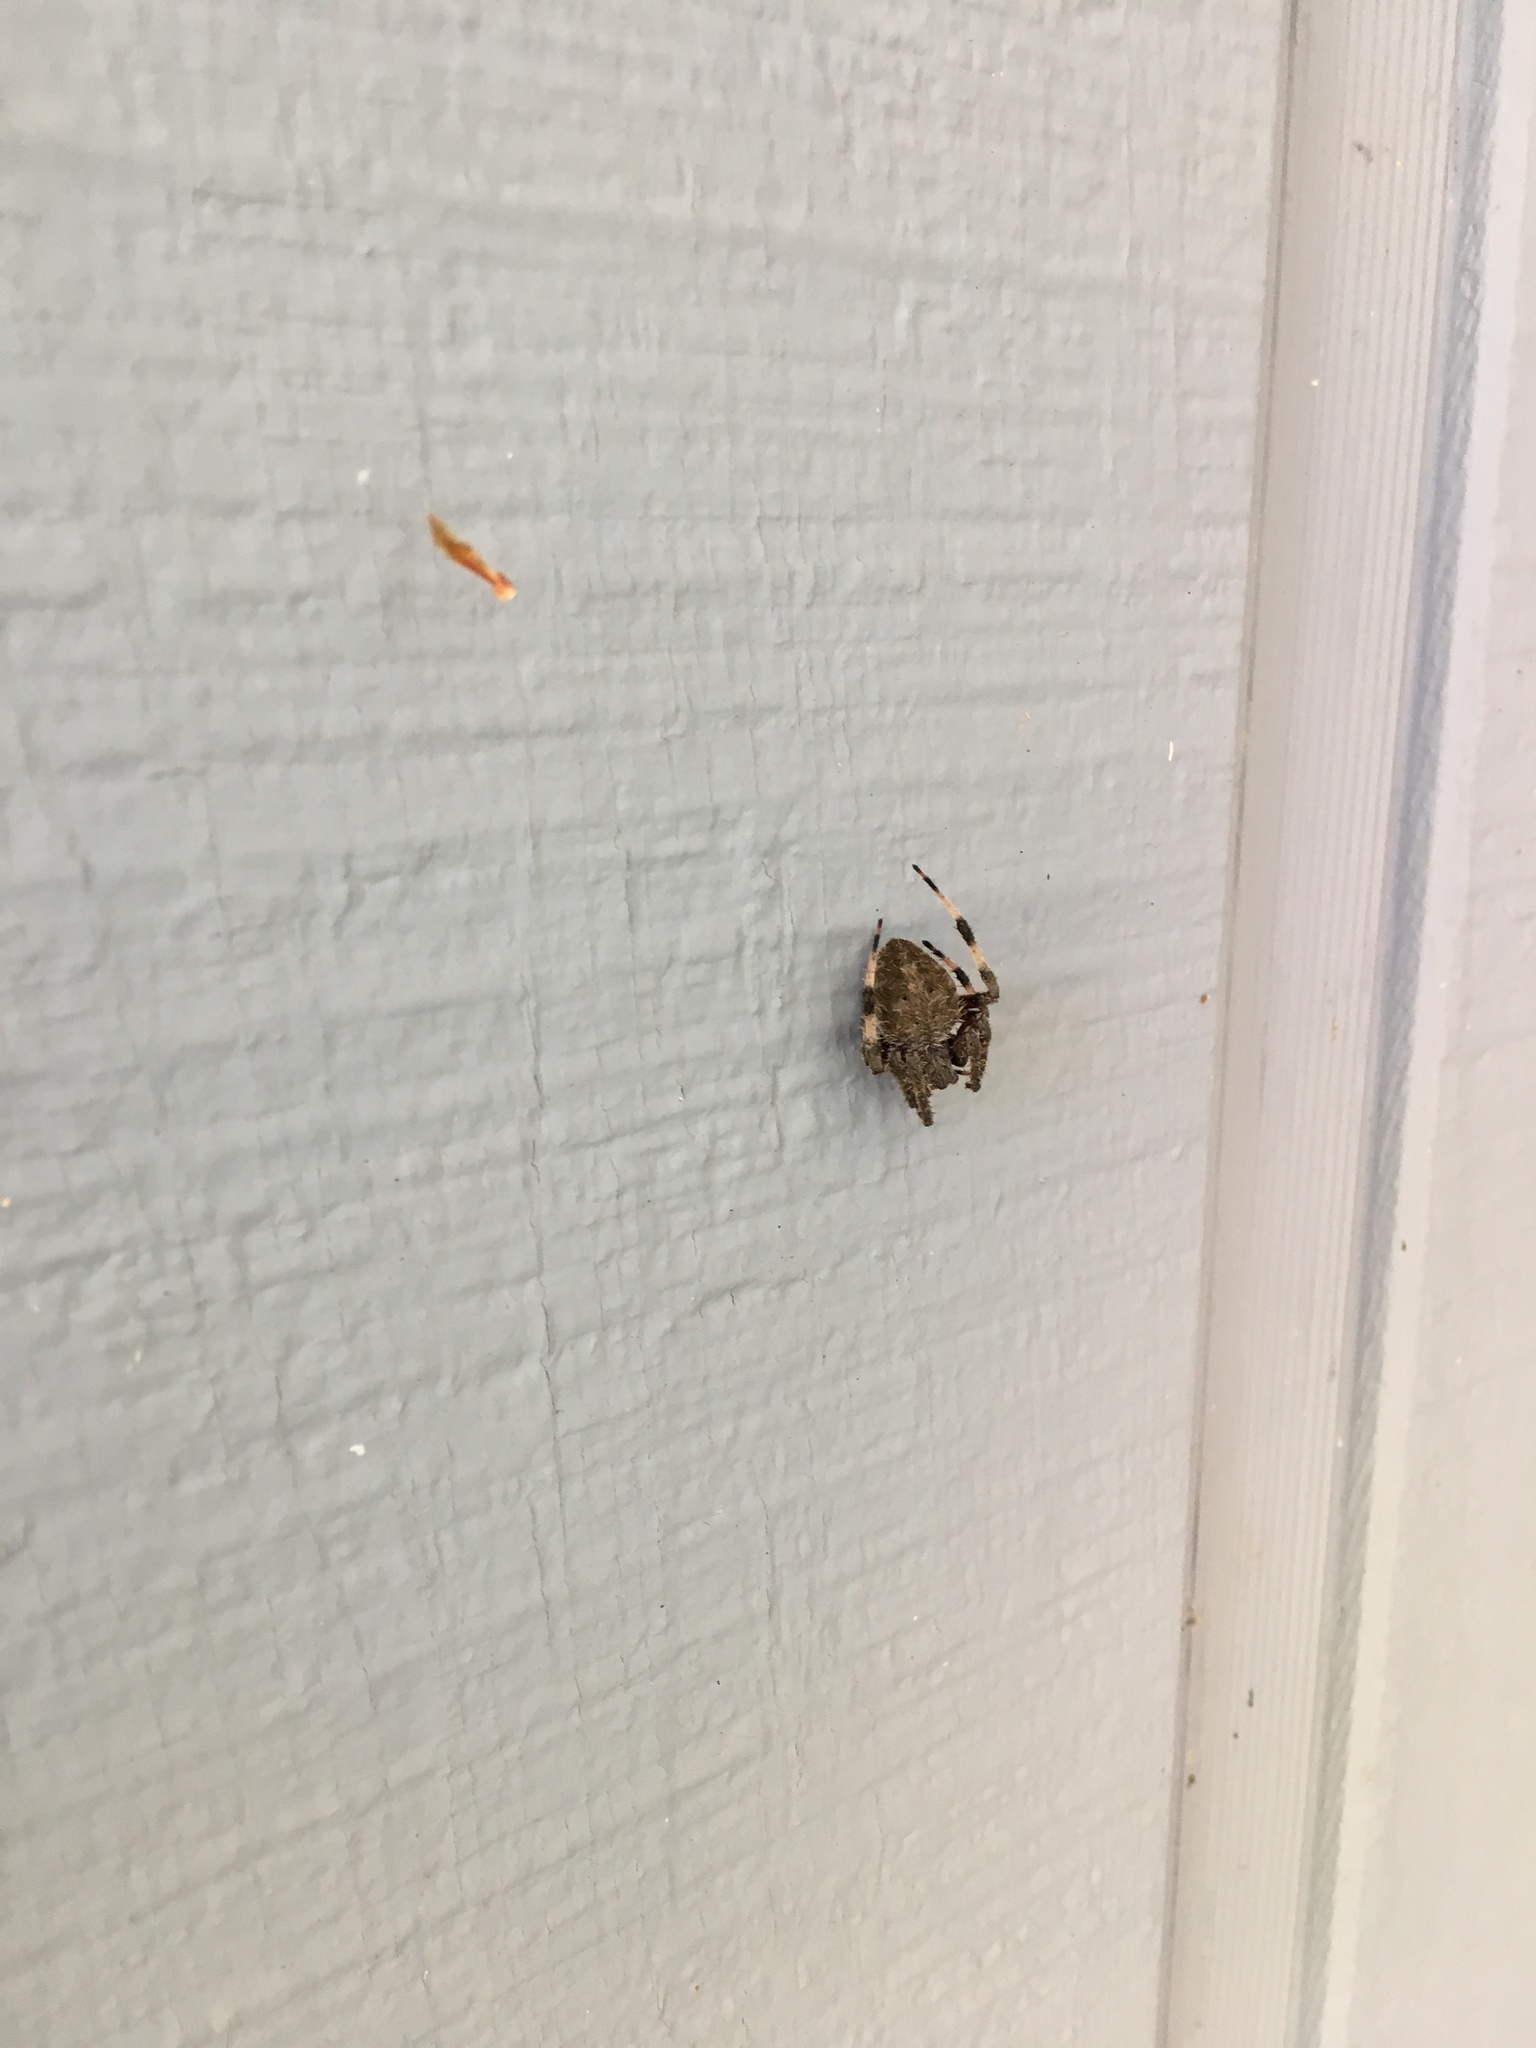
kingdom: Animalia
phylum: Arthropoda
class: Arachnida
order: Araneae
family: Araneidae
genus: Neoscona
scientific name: Neoscona crucifera
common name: Spotted orbweaver
